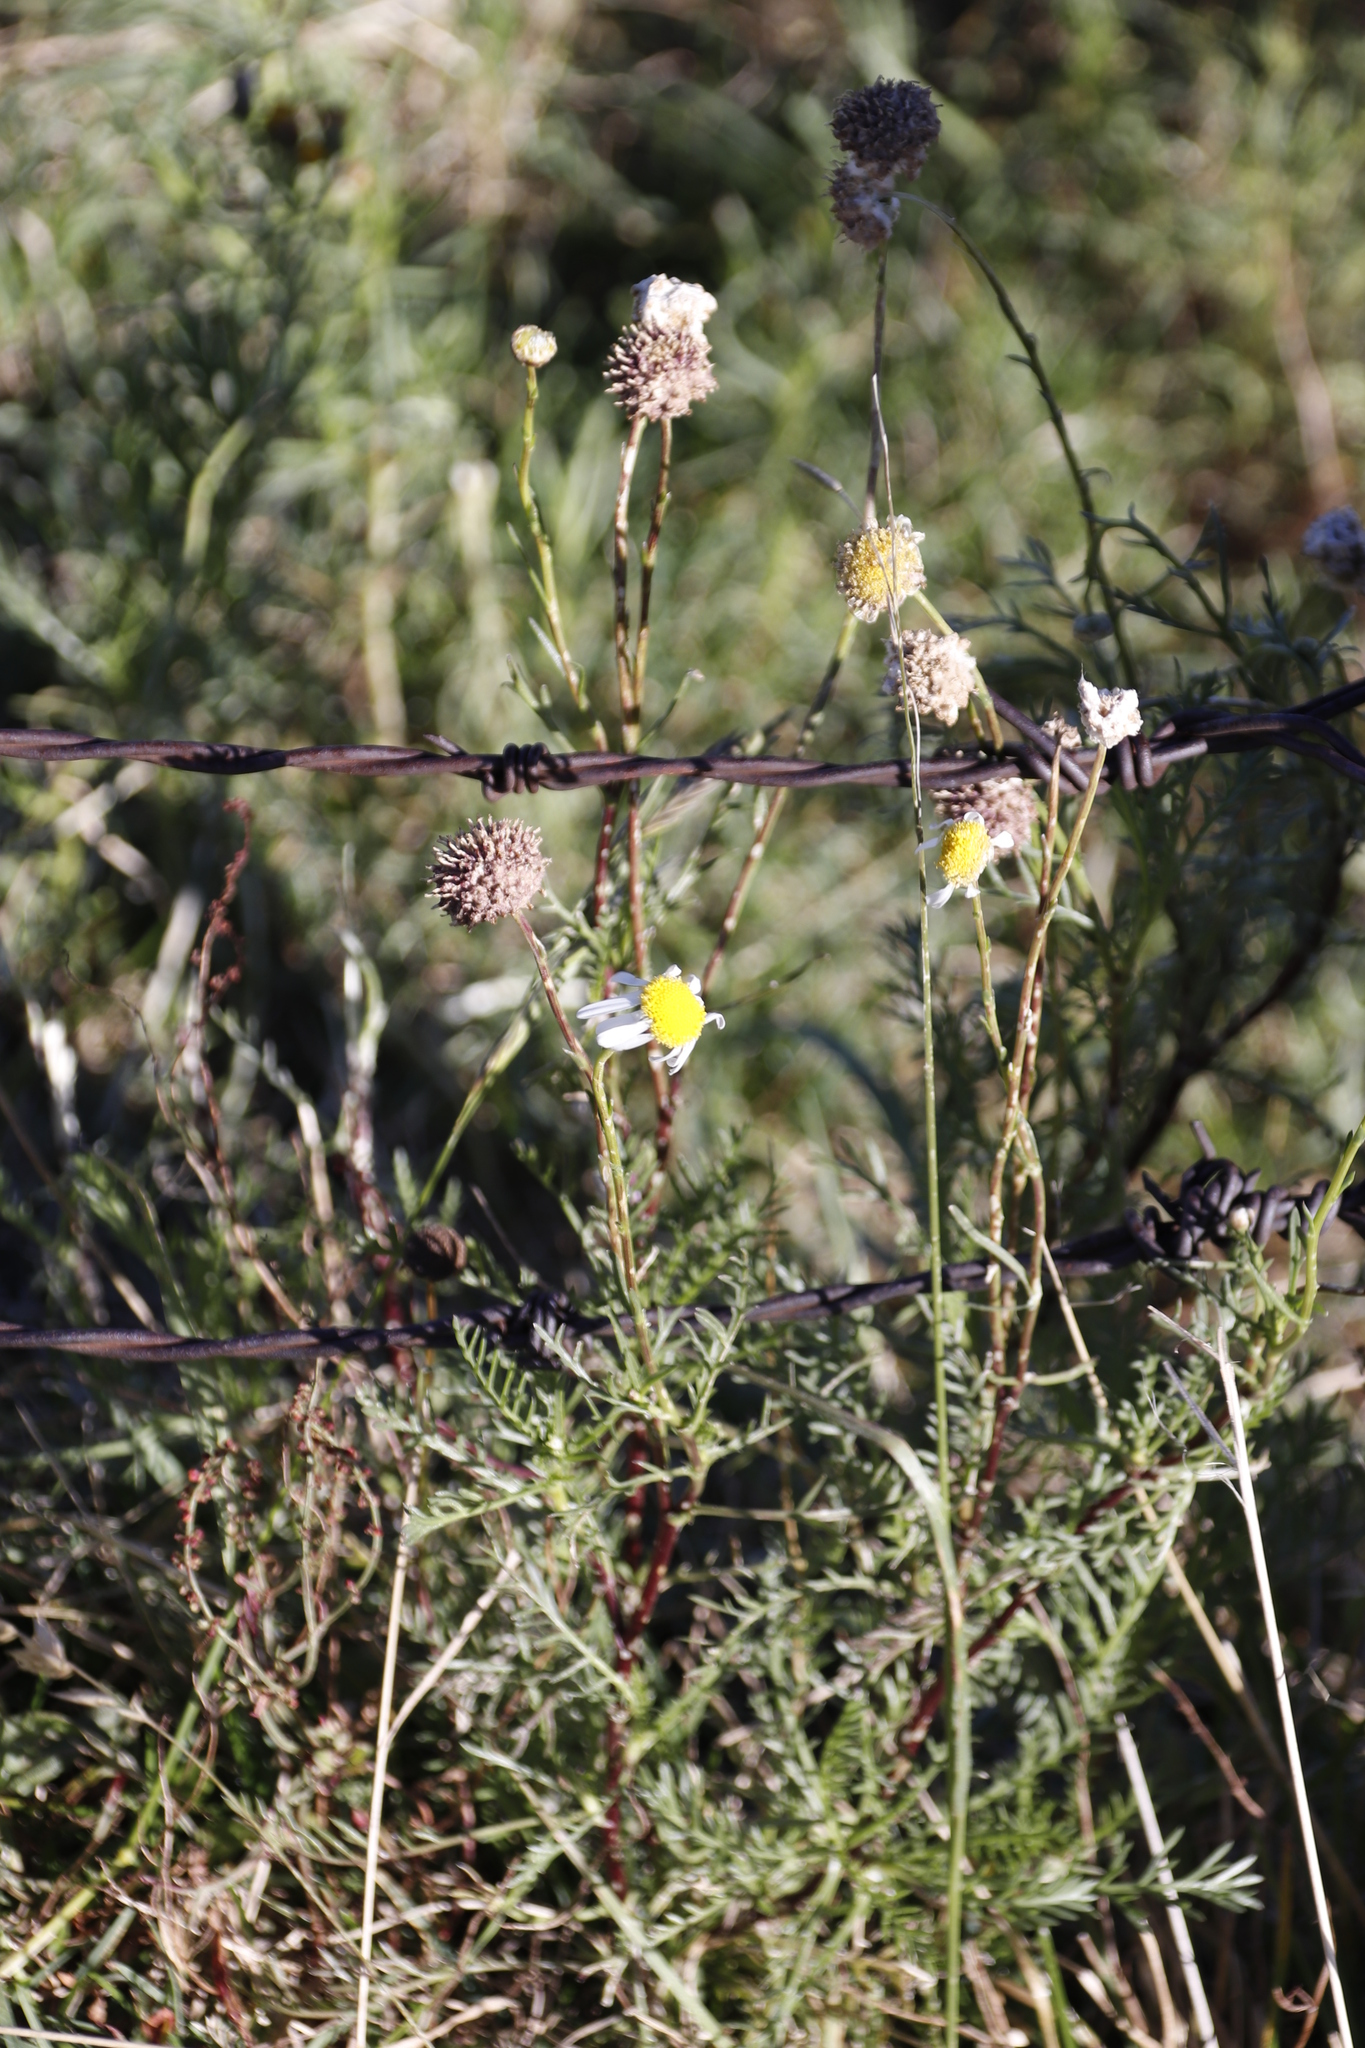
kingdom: Plantae
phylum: Tracheophyta
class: Magnoliopsida
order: Asterales
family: Asteraceae
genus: Lasiospermum
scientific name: Lasiospermum bipinnatum
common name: Cocoonhead
